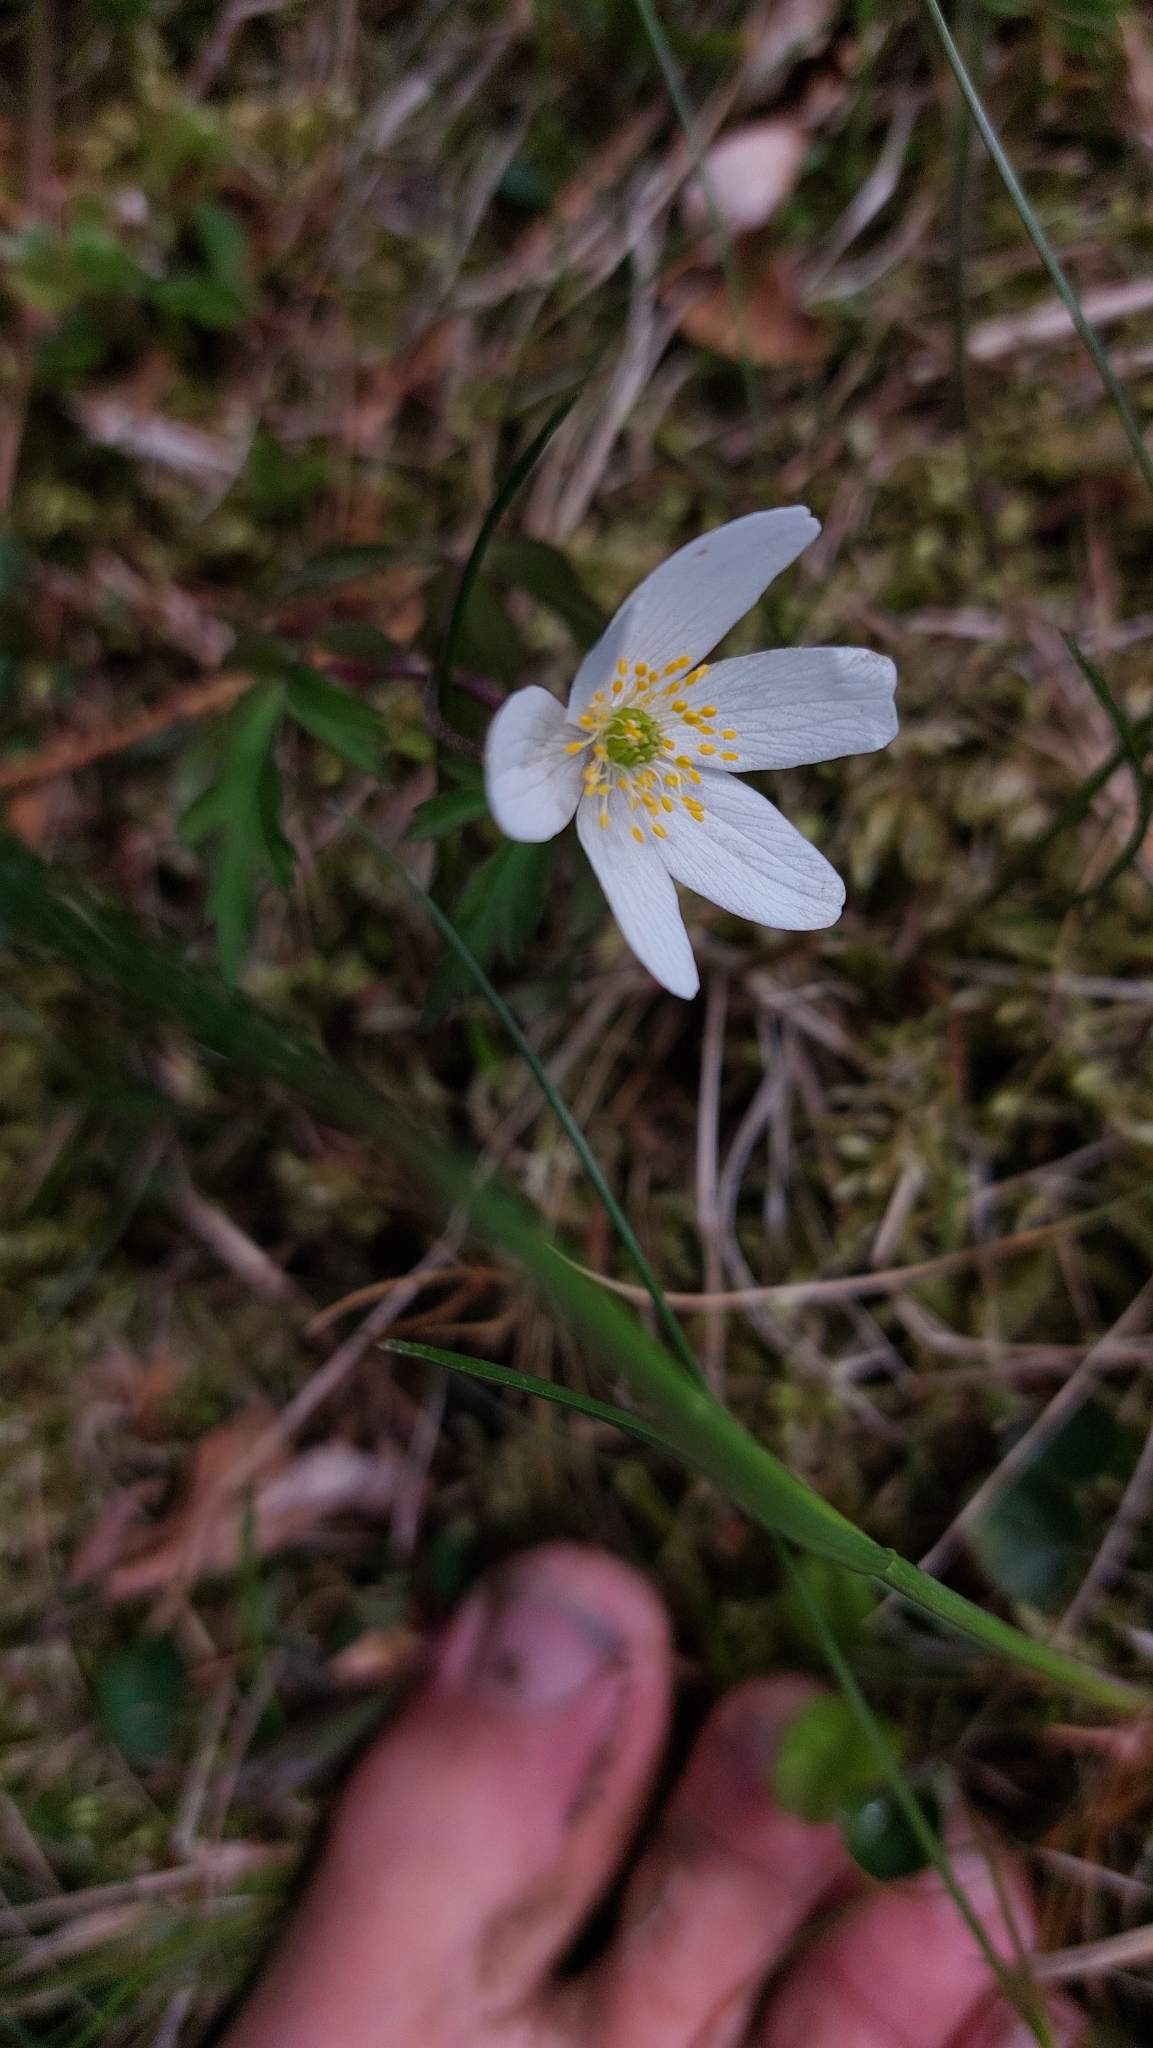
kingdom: Plantae
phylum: Tracheophyta
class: Magnoliopsida
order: Ranunculales
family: Ranunculaceae
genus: Anemone
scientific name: Anemone nemorosa
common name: Wood anemone
